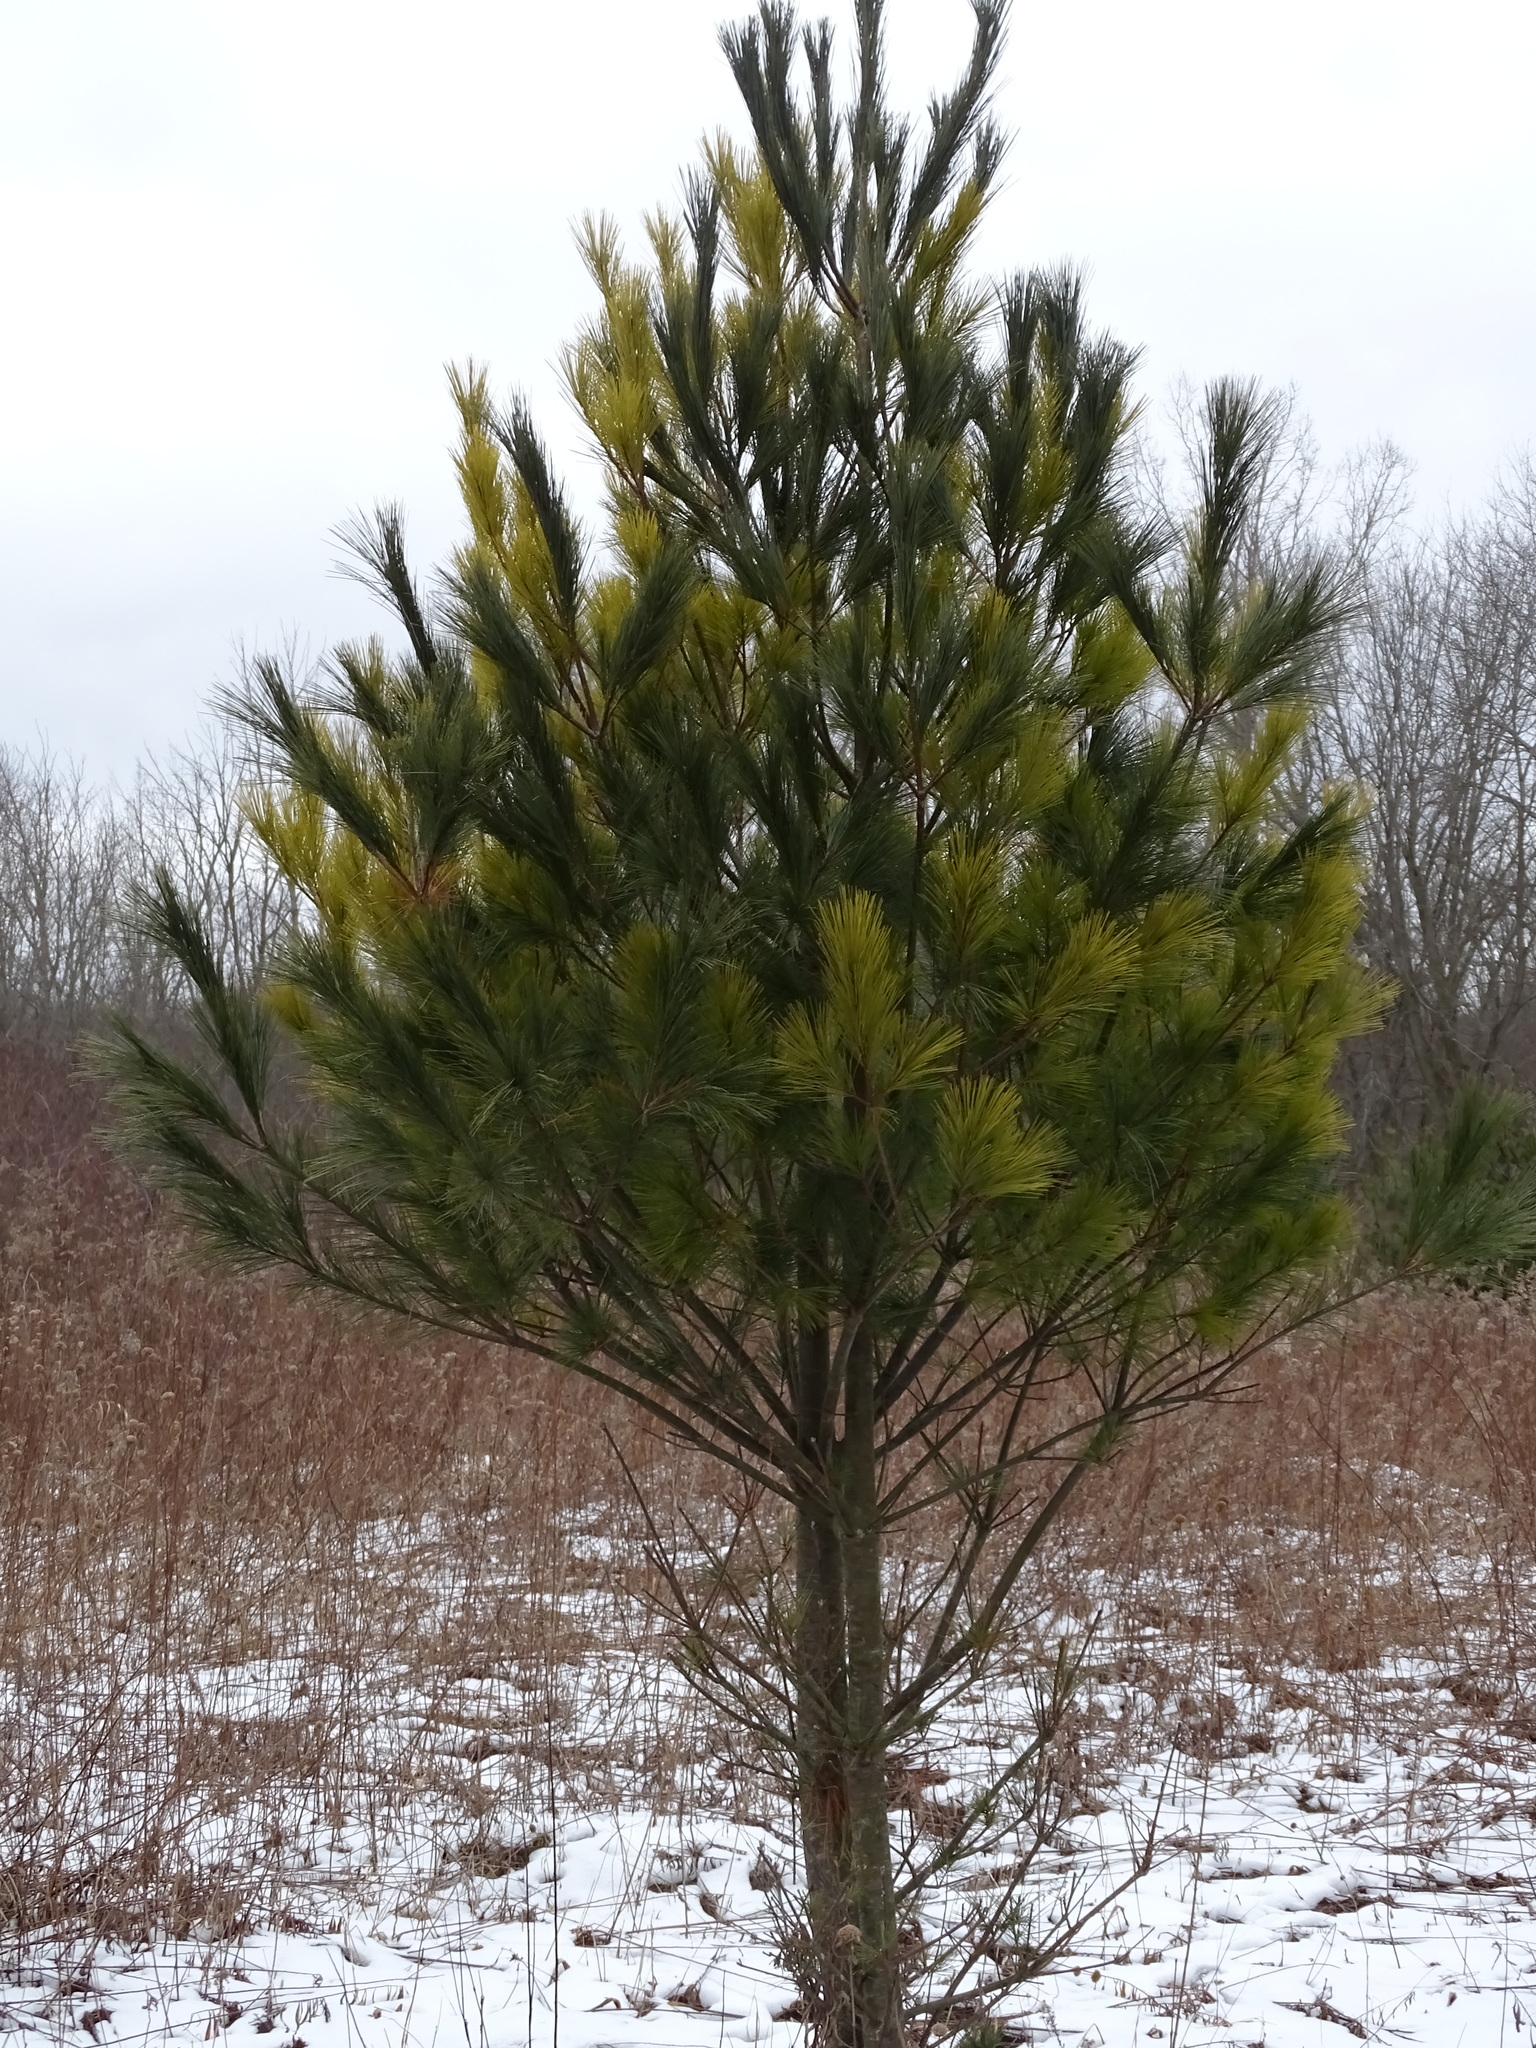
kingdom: Plantae
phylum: Tracheophyta
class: Pinopsida
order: Pinales
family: Pinaceae
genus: Pinus
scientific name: Pinus strobus
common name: Weymouth pine
